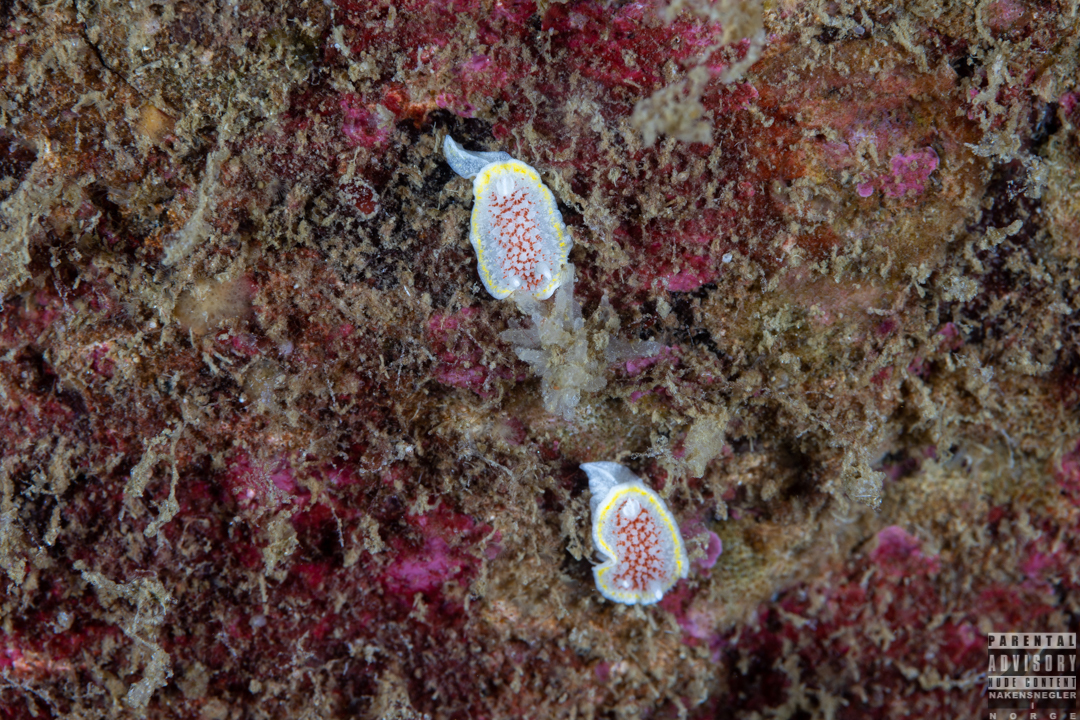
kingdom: Animalia
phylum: Mollusca
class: Gastropoda
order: Nudibranchia
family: Calycidorididae
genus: Diaphorodoris
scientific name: Diaphorodoris luteocincta
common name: Fried egg nudibranch
